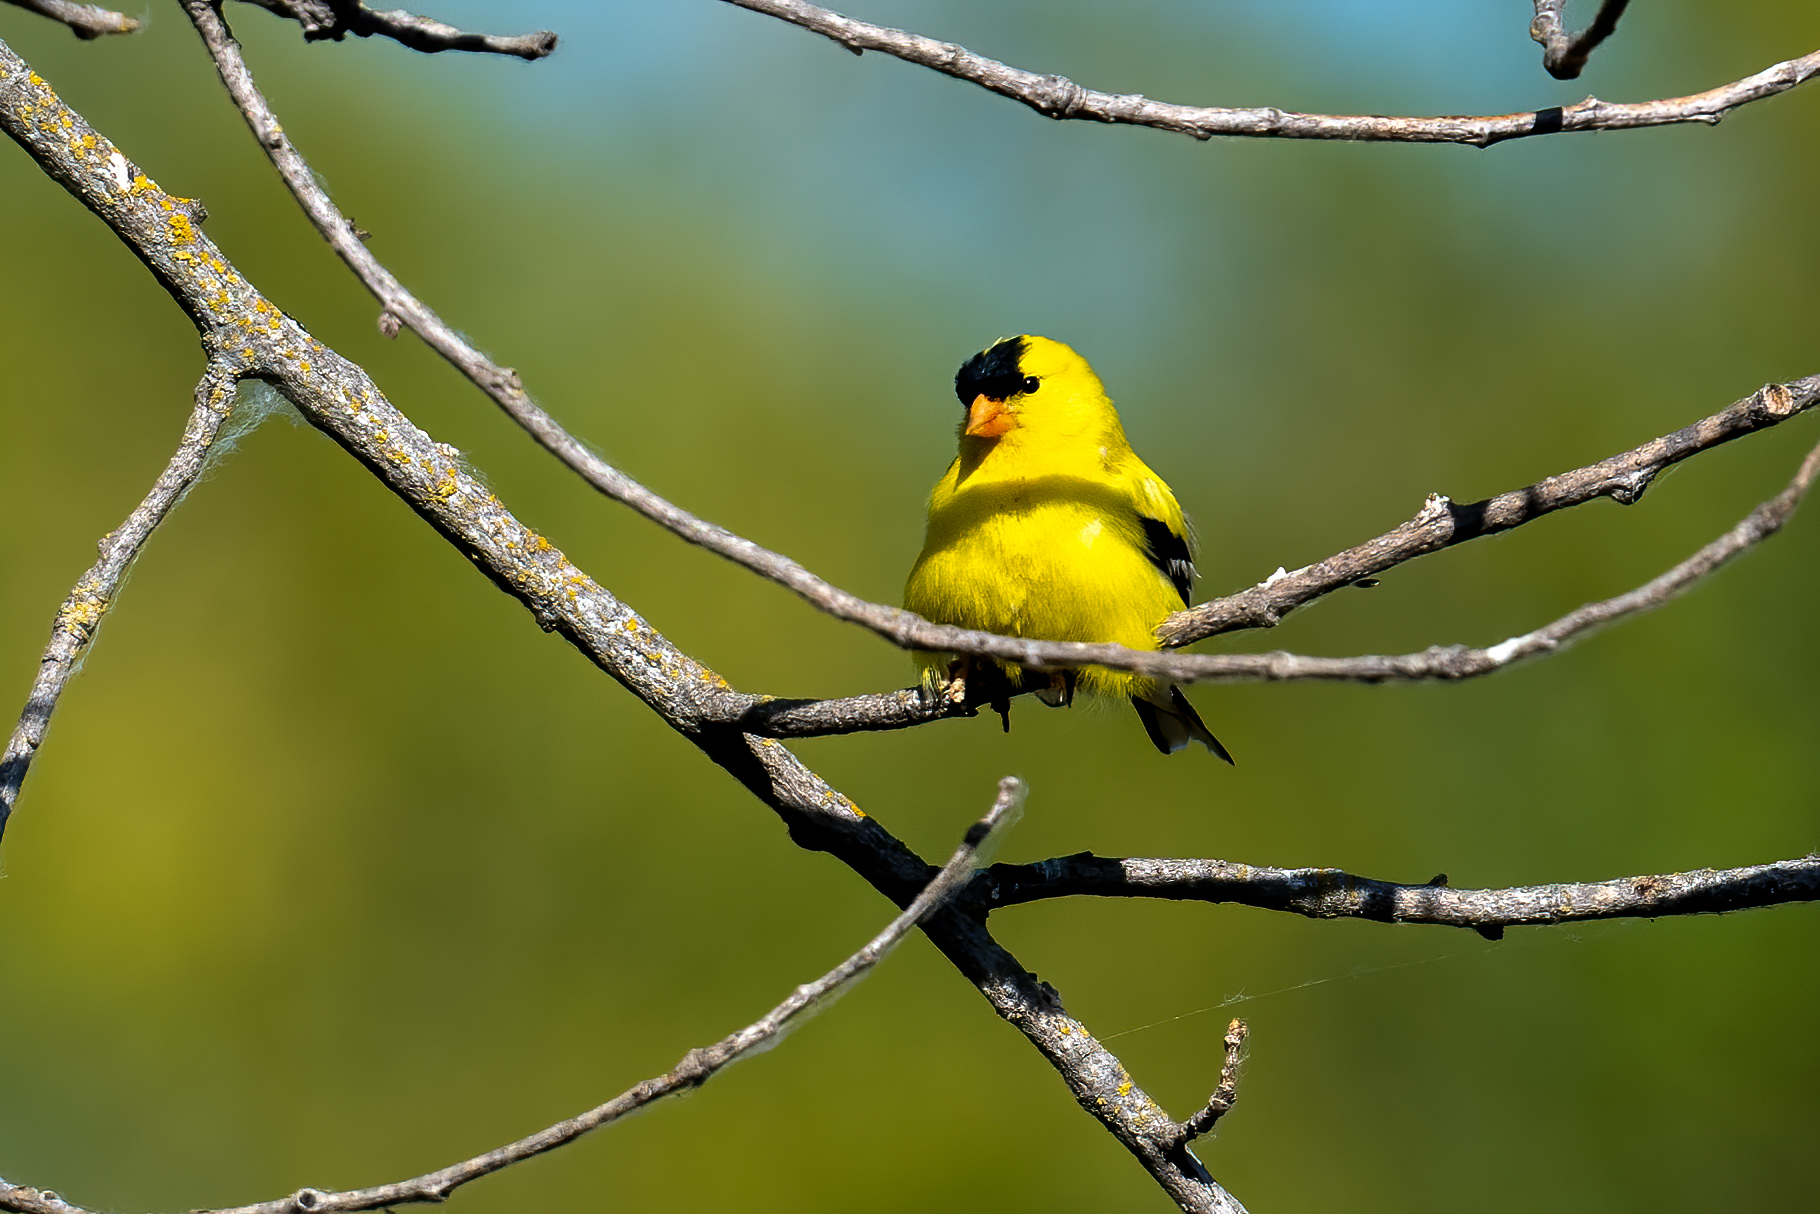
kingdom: Animalia
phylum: Chordata
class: Aves
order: Passeriformes
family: Fringillidae
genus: Spinus
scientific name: Spinus tristis
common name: American goldfinch
